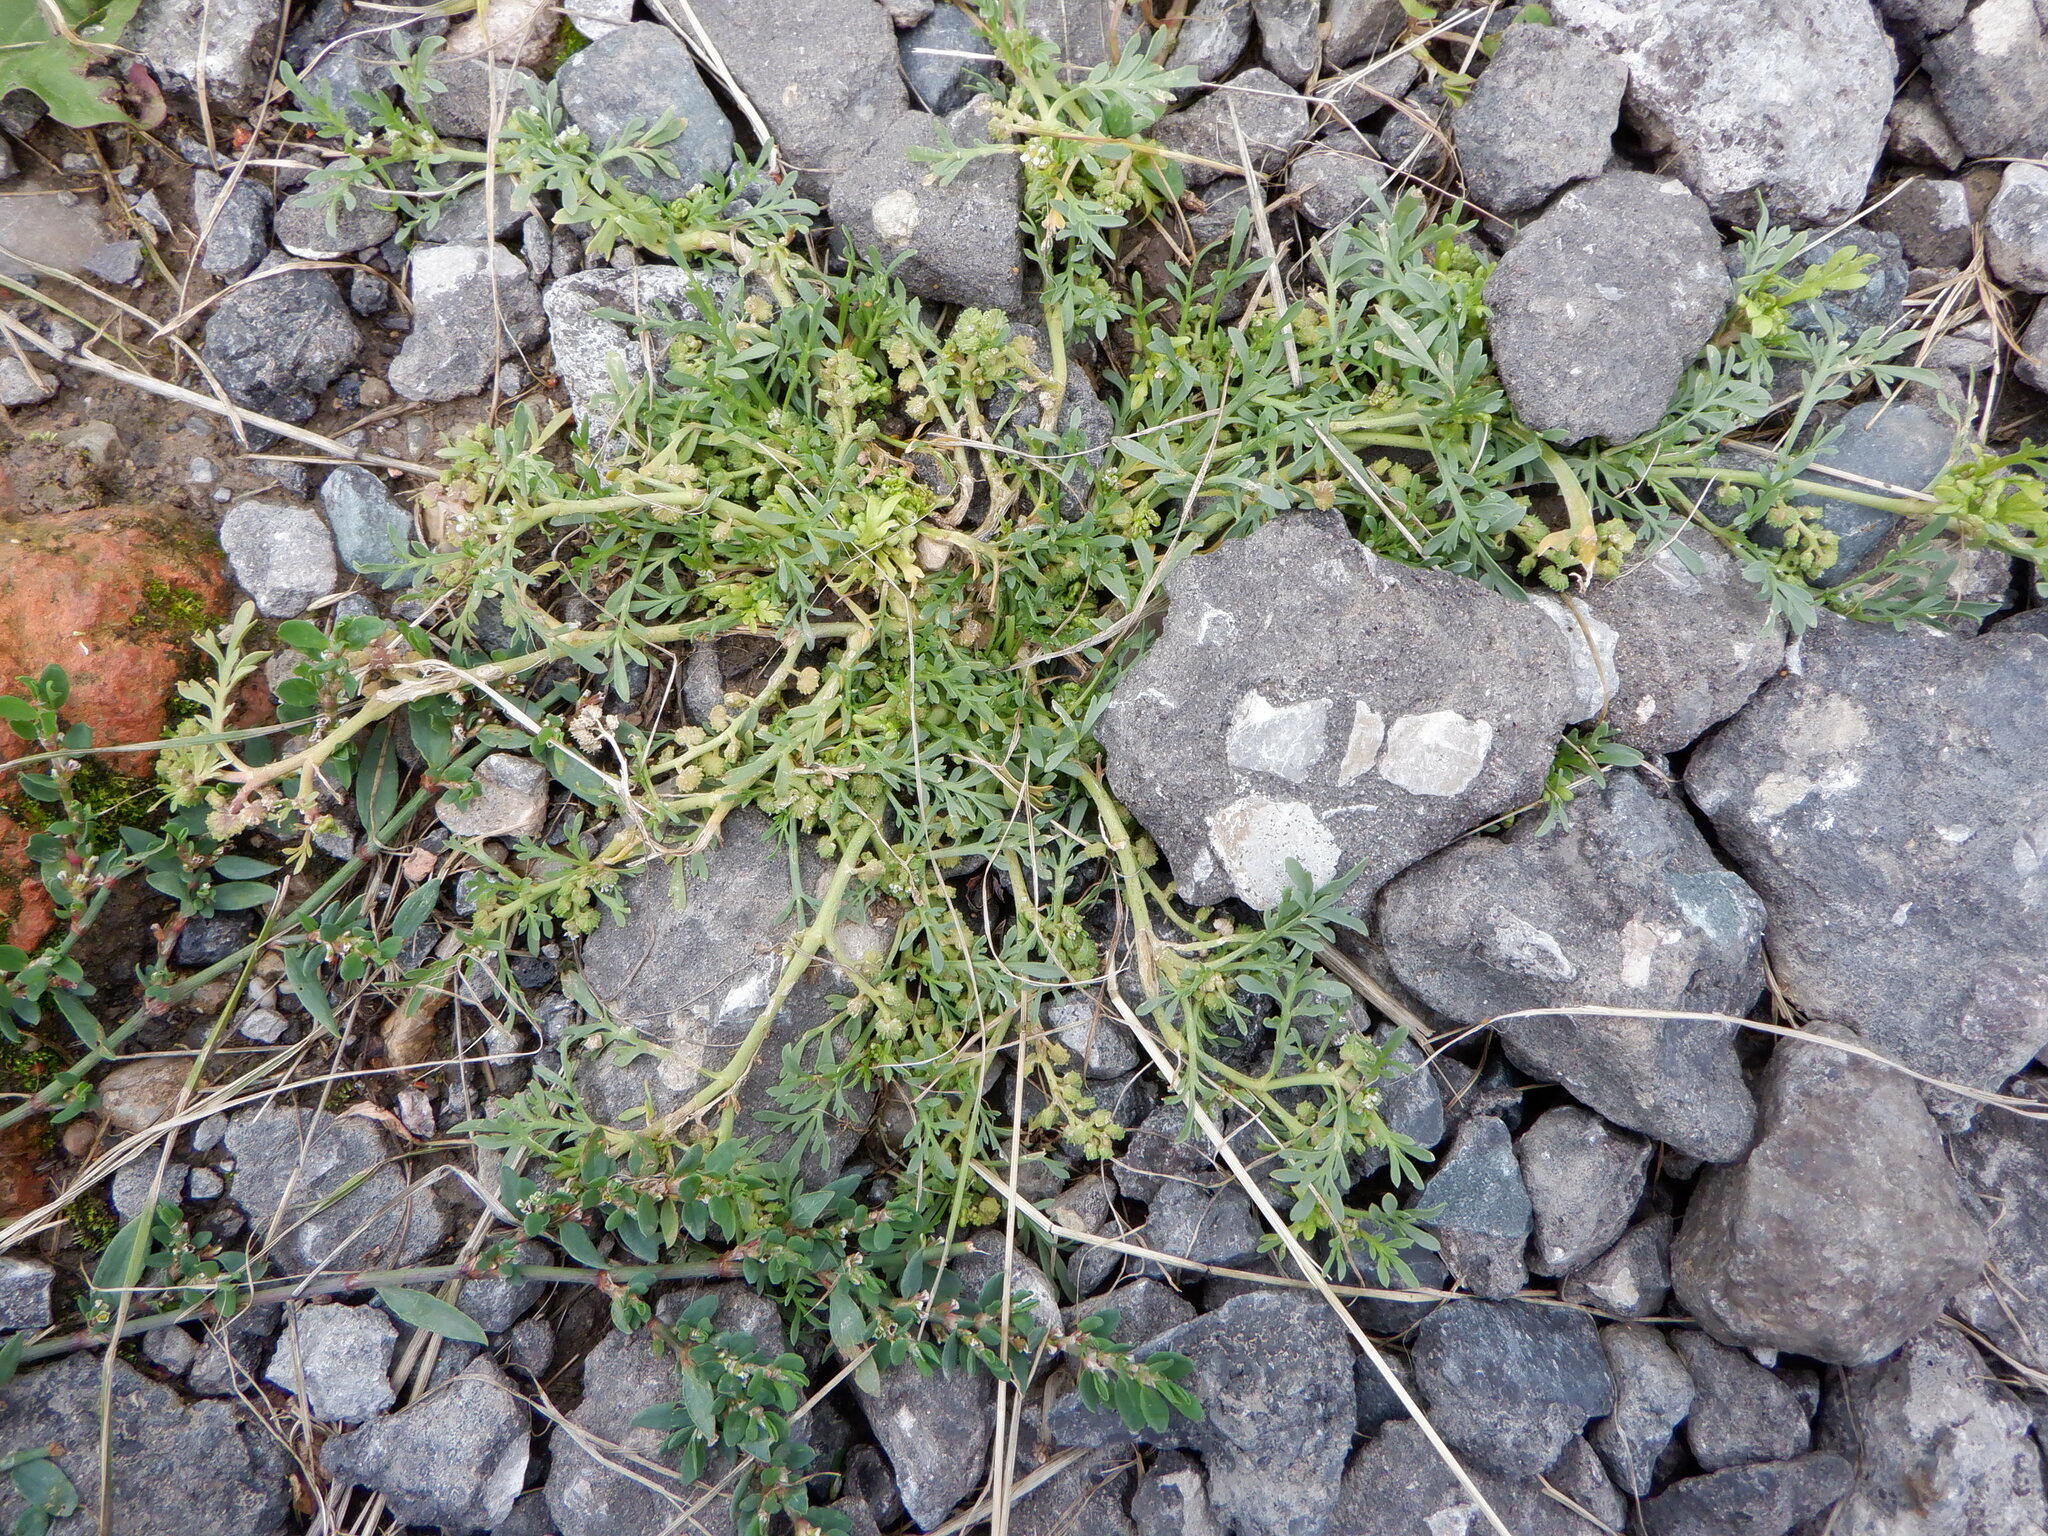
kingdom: Plantae
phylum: Tracheophyta
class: Magnoliopsida
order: Brassicales
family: Brassicaceae
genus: Lepidium
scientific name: Lepidium coronopus
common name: Greater swinecress
